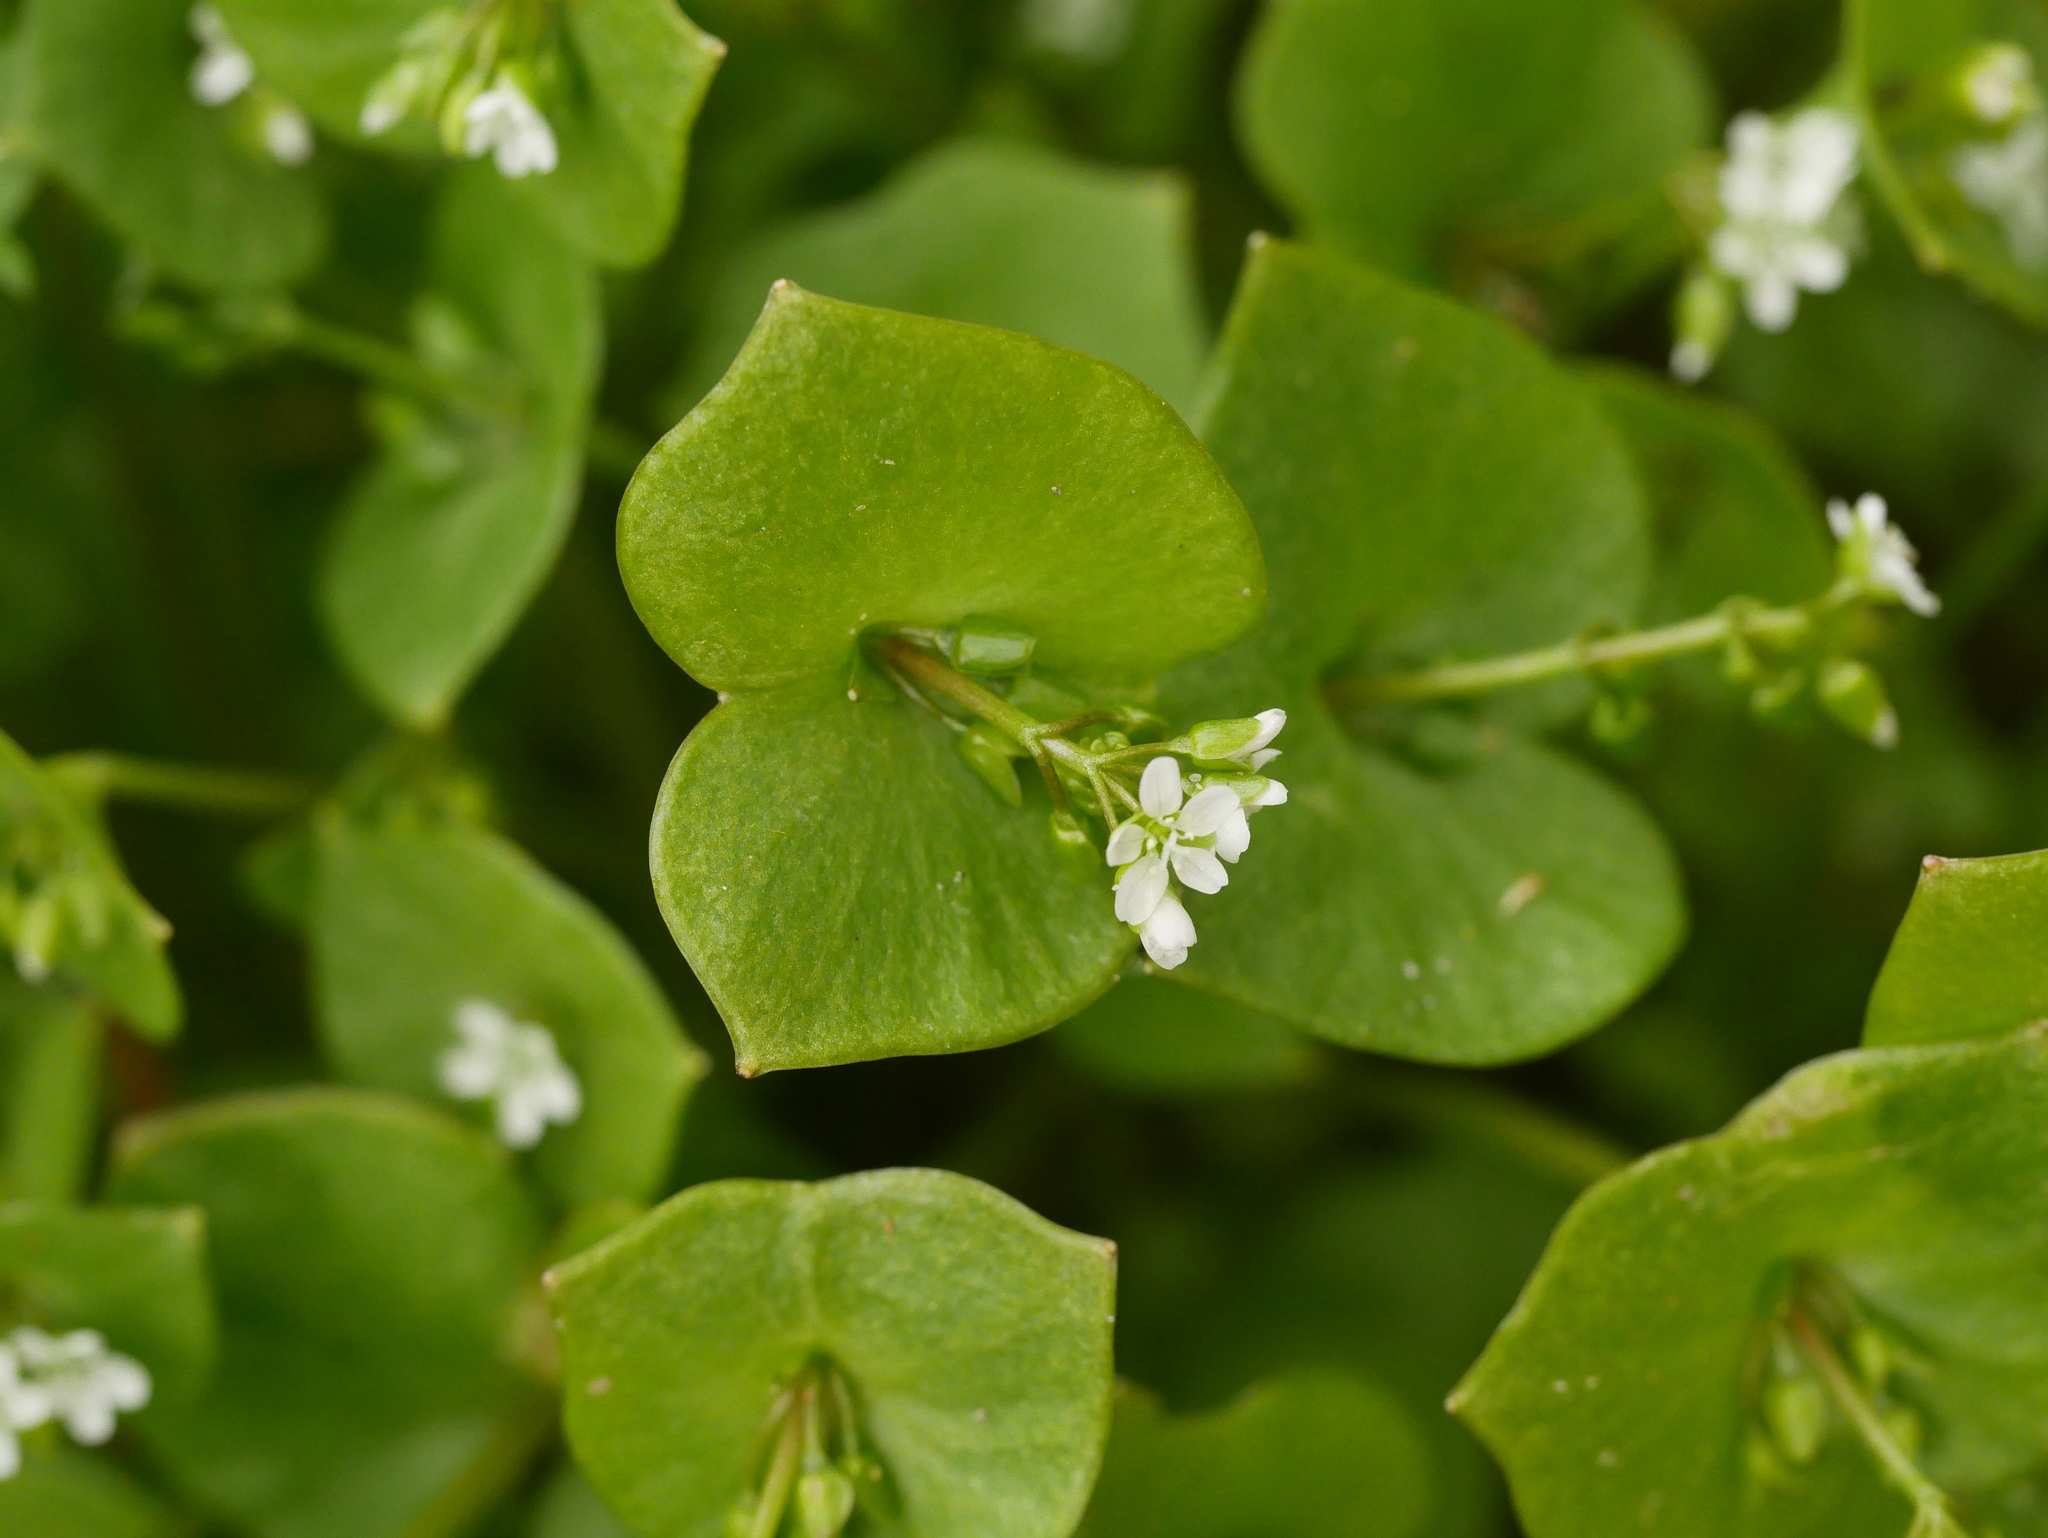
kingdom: Plantae
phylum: Tracheophyta
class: Magnoliopsida
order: Caryophyllales
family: Montiaceae
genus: Claytonia
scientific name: Claytonia perfoliata
